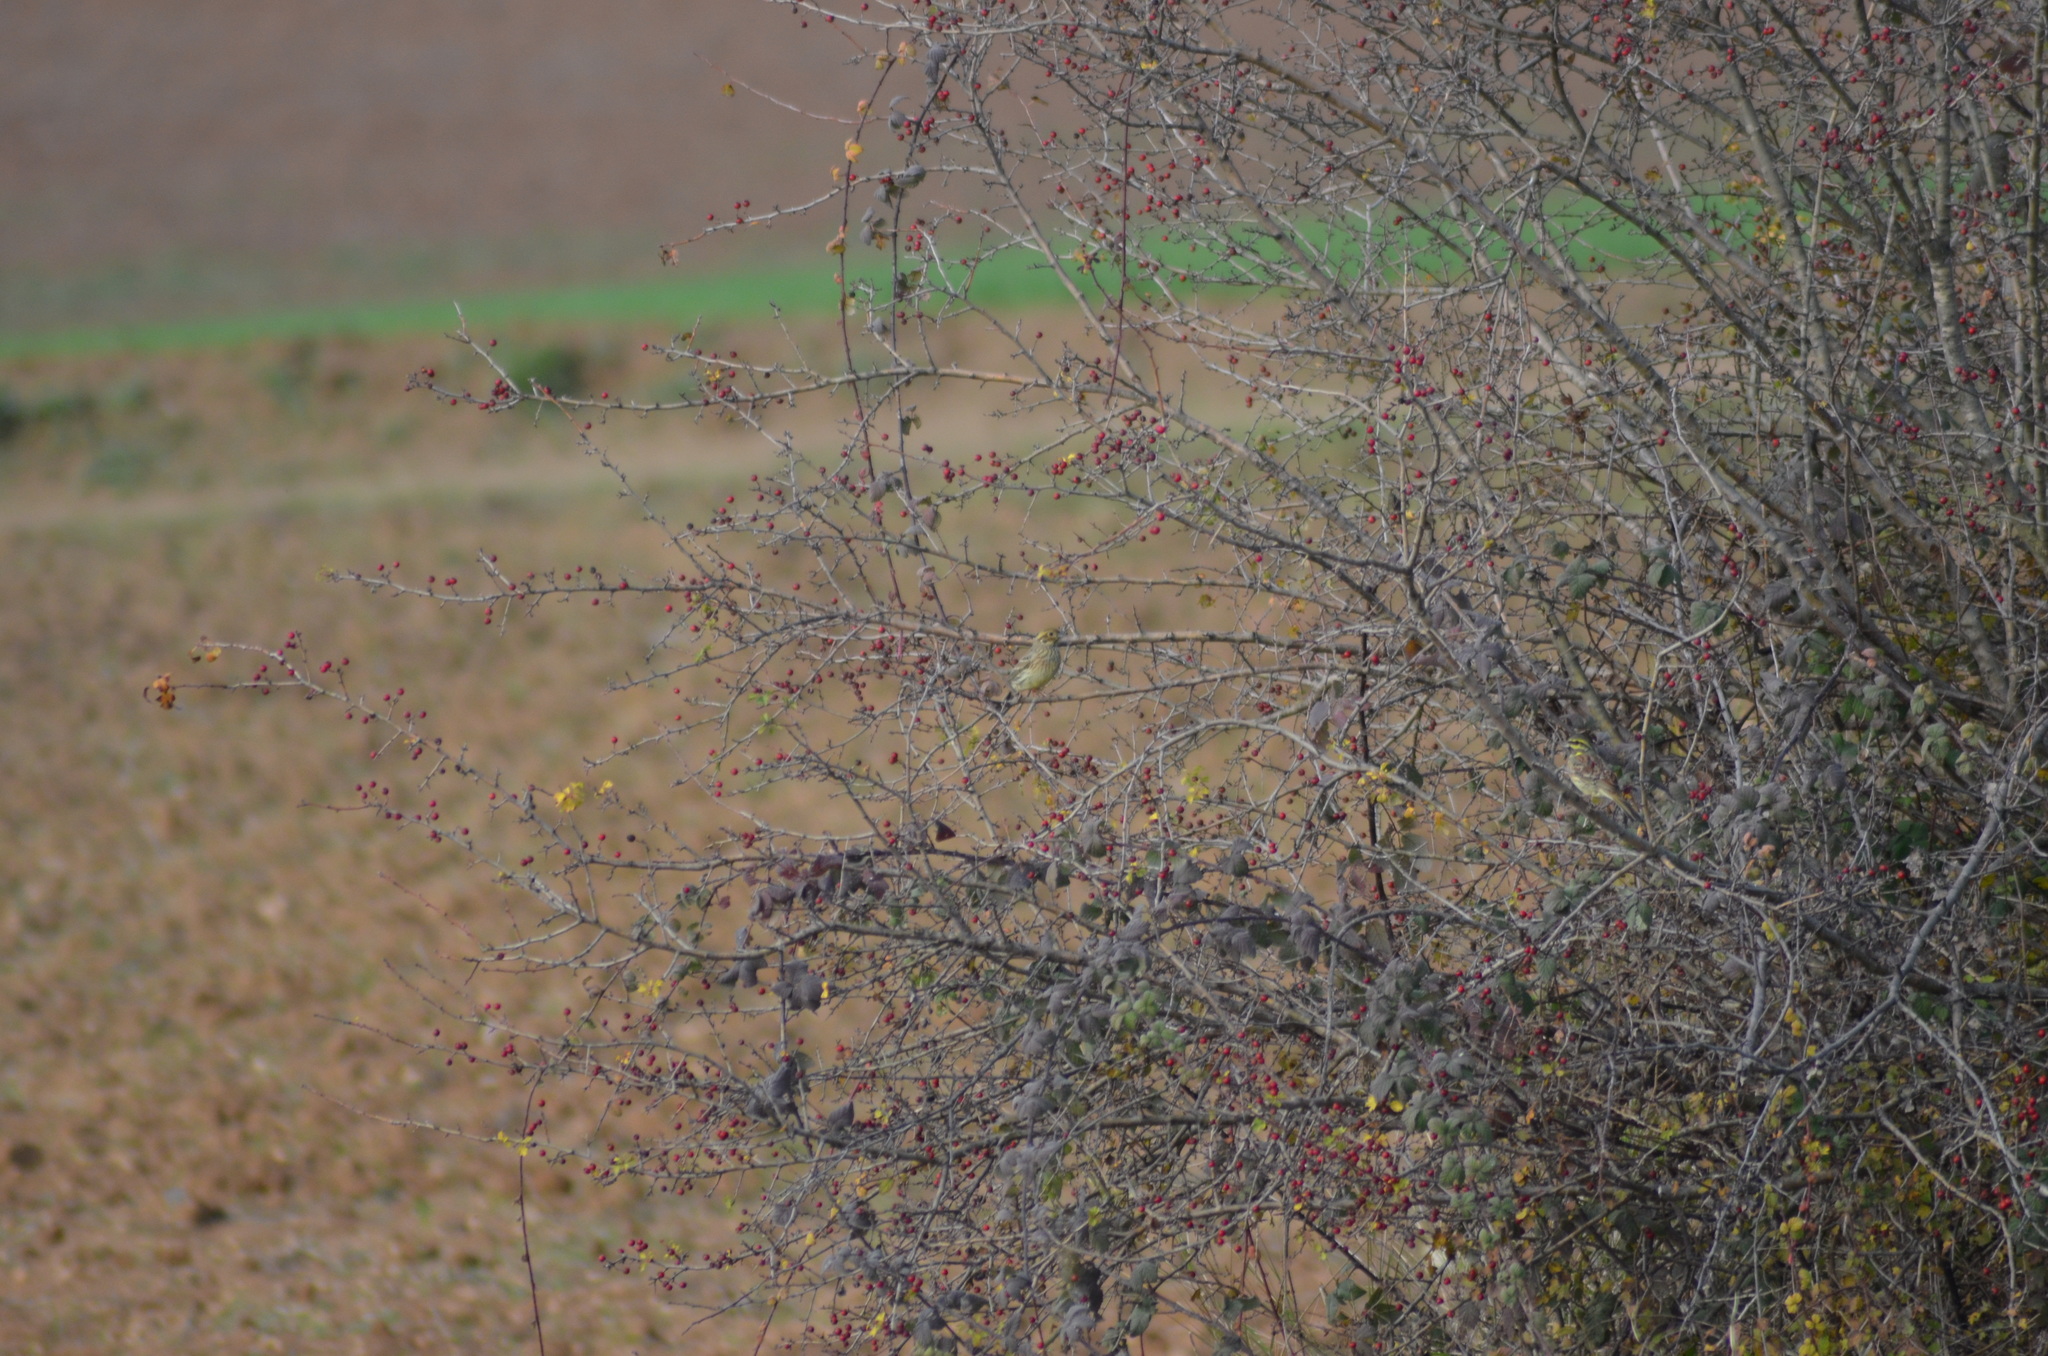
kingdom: Animalia
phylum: Chordata
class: Aves
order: Passeriformes
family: Emberizidae
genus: Emberiza
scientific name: Emberiza cirlus
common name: Cirl bunting
